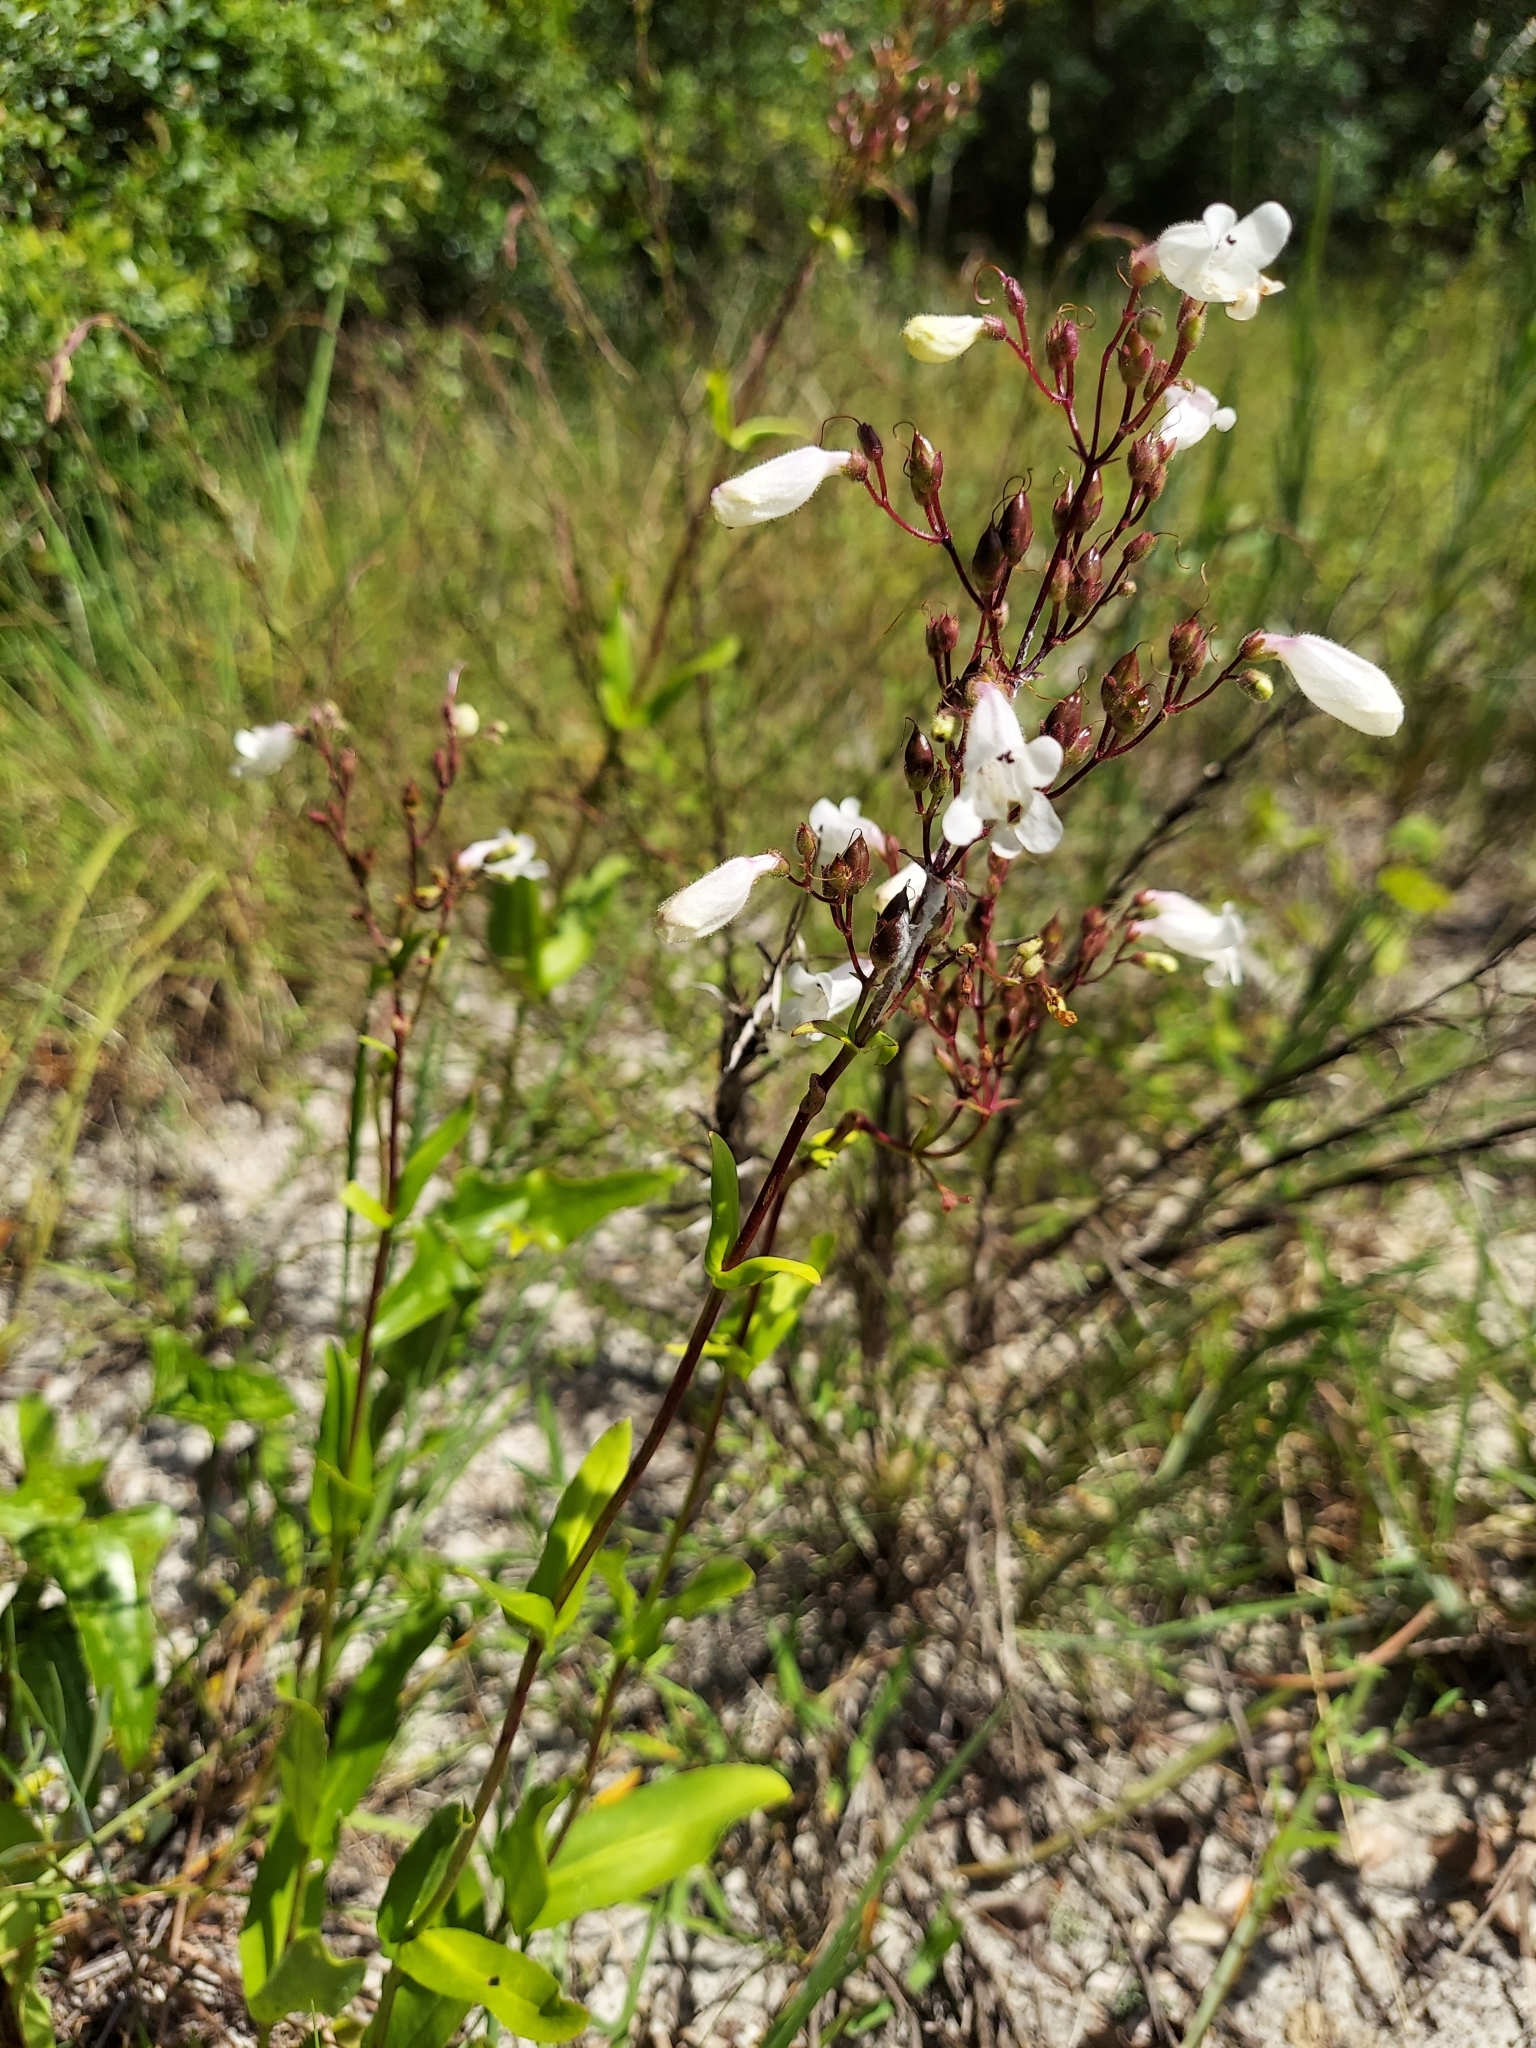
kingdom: Plantae
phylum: Tracheophyta
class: Magnoliopsida
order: Lamiales
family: Plantaginaceae
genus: Penstemon
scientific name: Penstemon multiflorus
